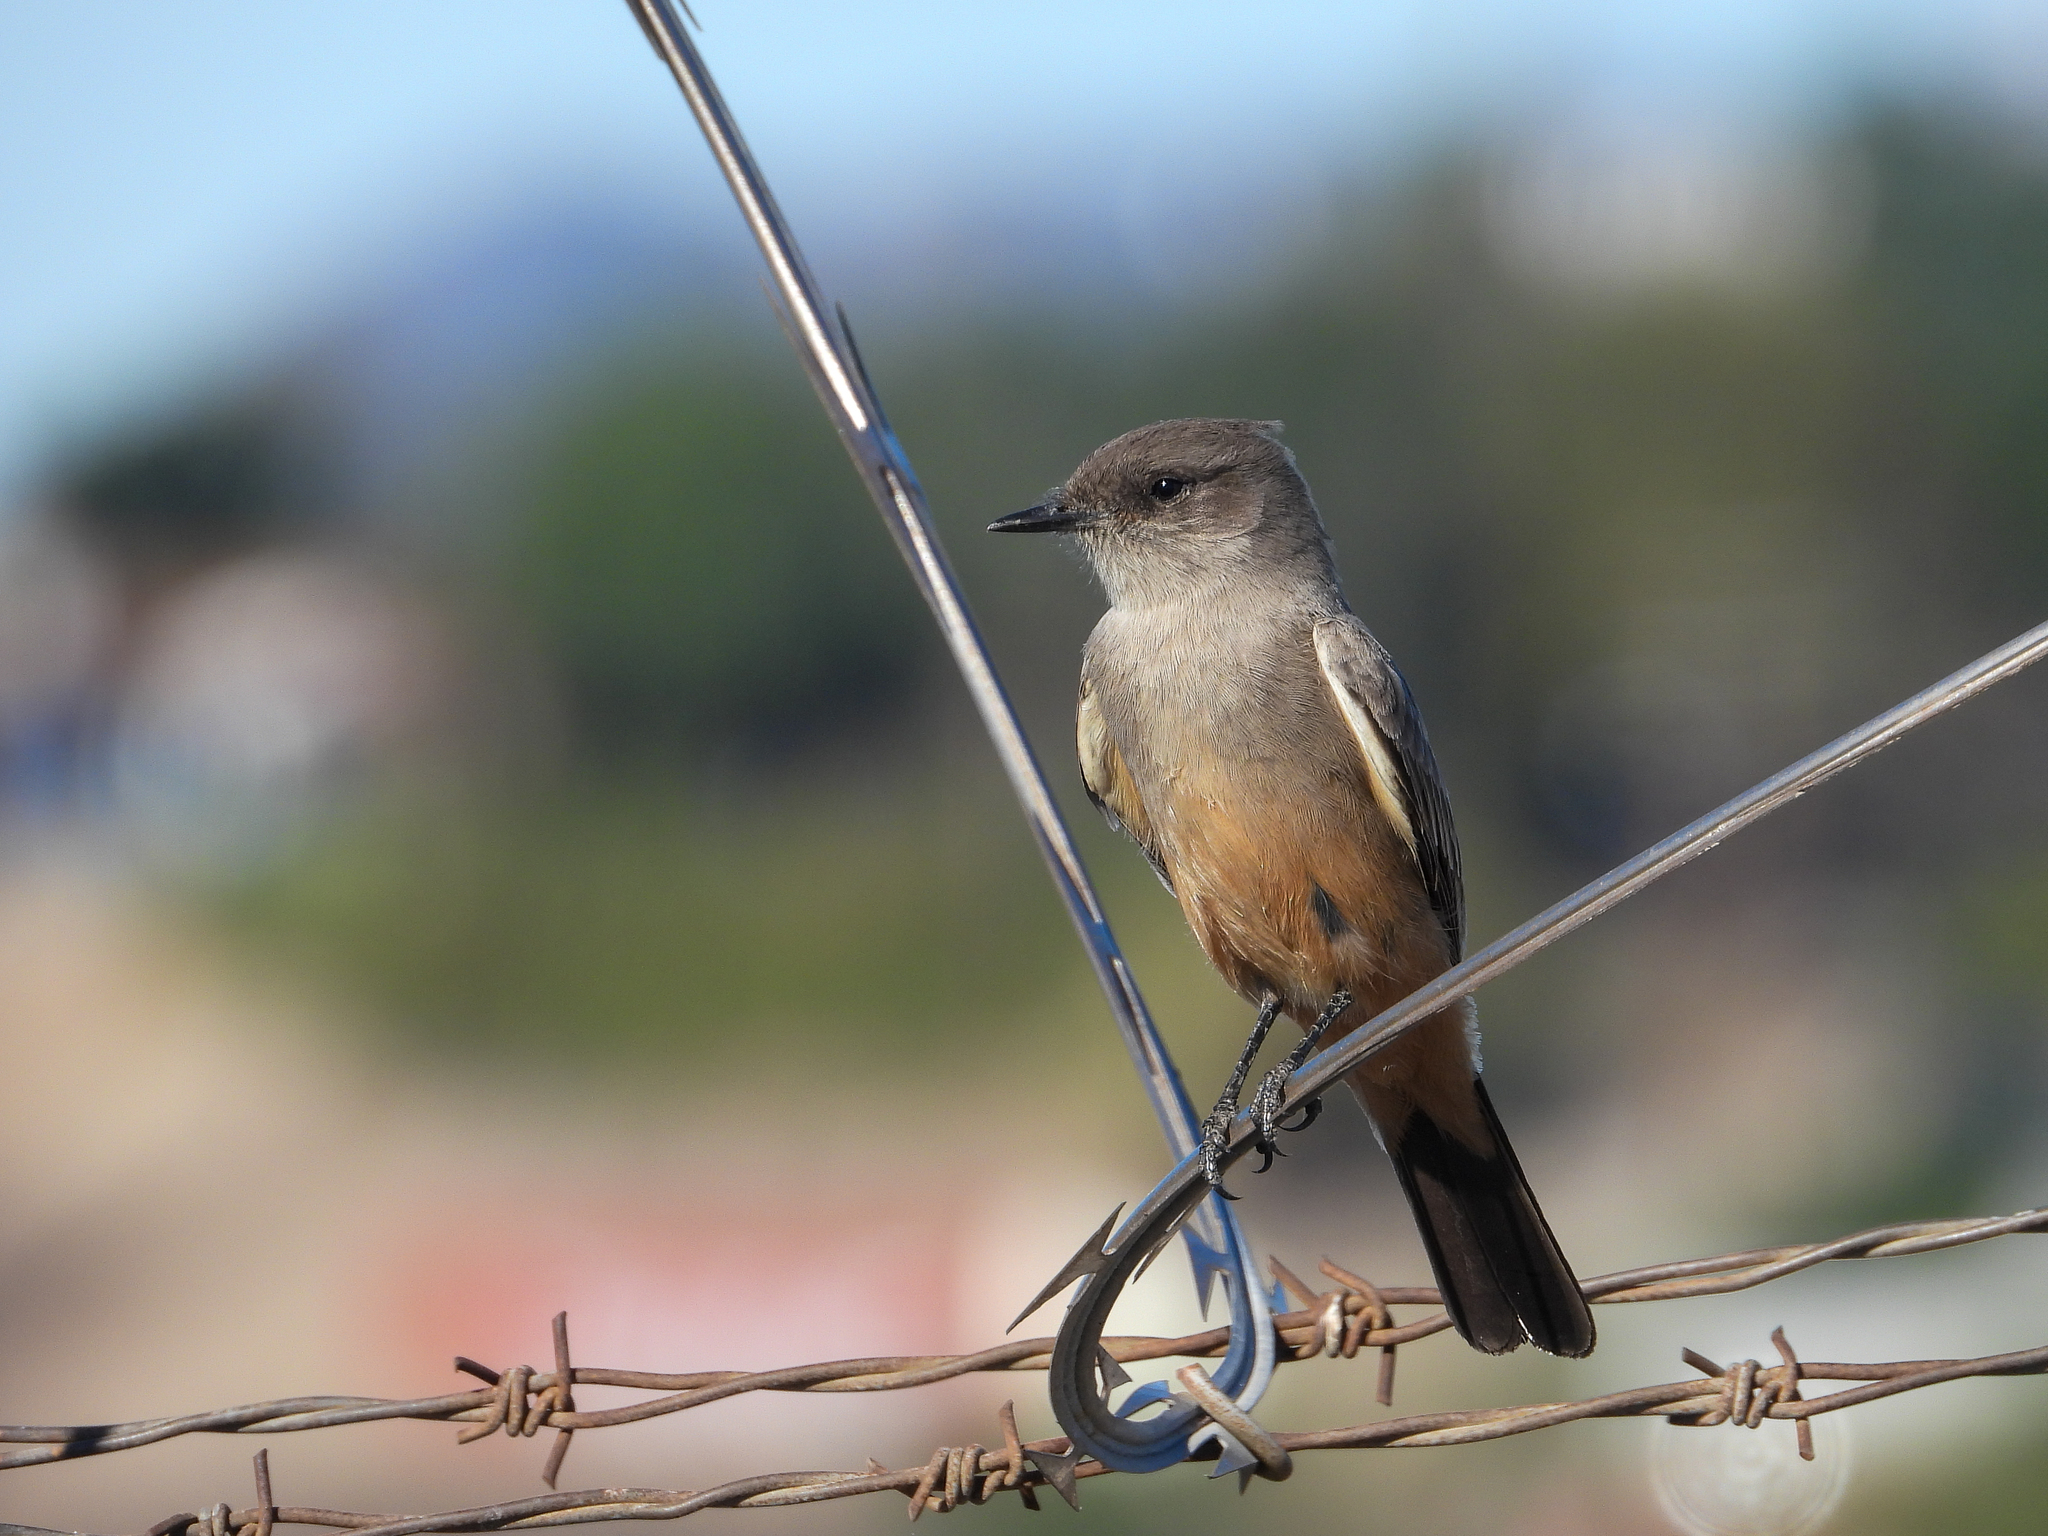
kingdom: Animalia
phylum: Chordata
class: Aves
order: Passeriformes
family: Tyrannidae
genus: Sayornis
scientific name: Sayornis saya
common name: Say's phoebe
